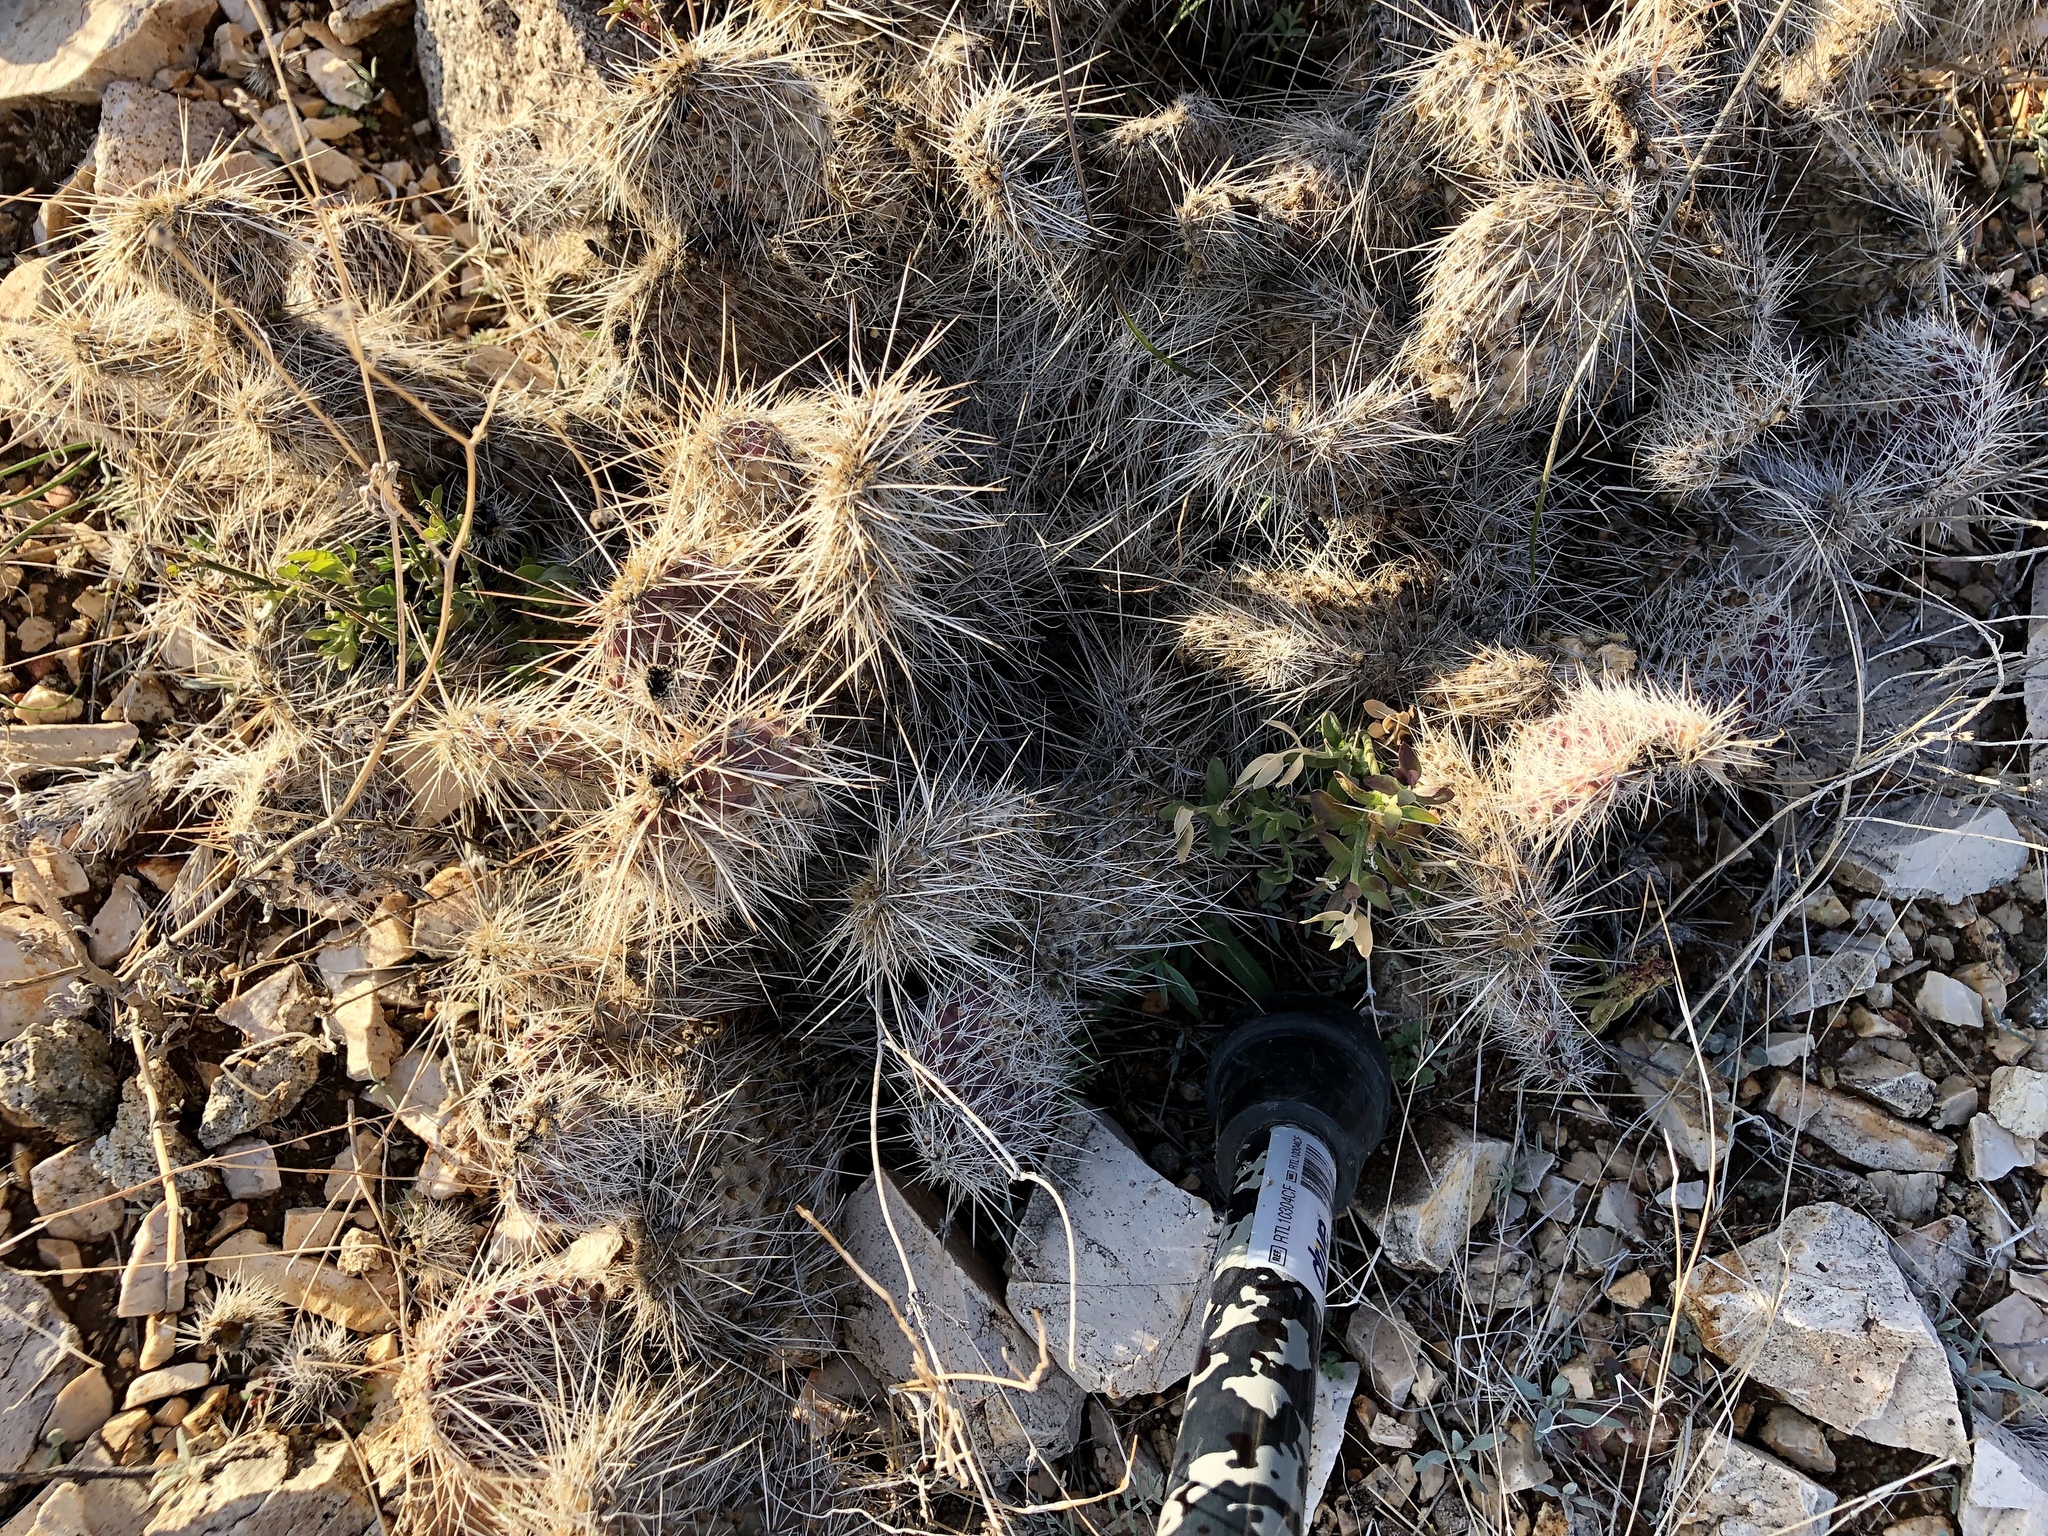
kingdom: Plantae
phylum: Tracheophyta
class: Magnoliopsida
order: Caryophyllales
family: Cactaceae
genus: Opuntia
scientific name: Opuntia polyacantha
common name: Plains prickly-pear
